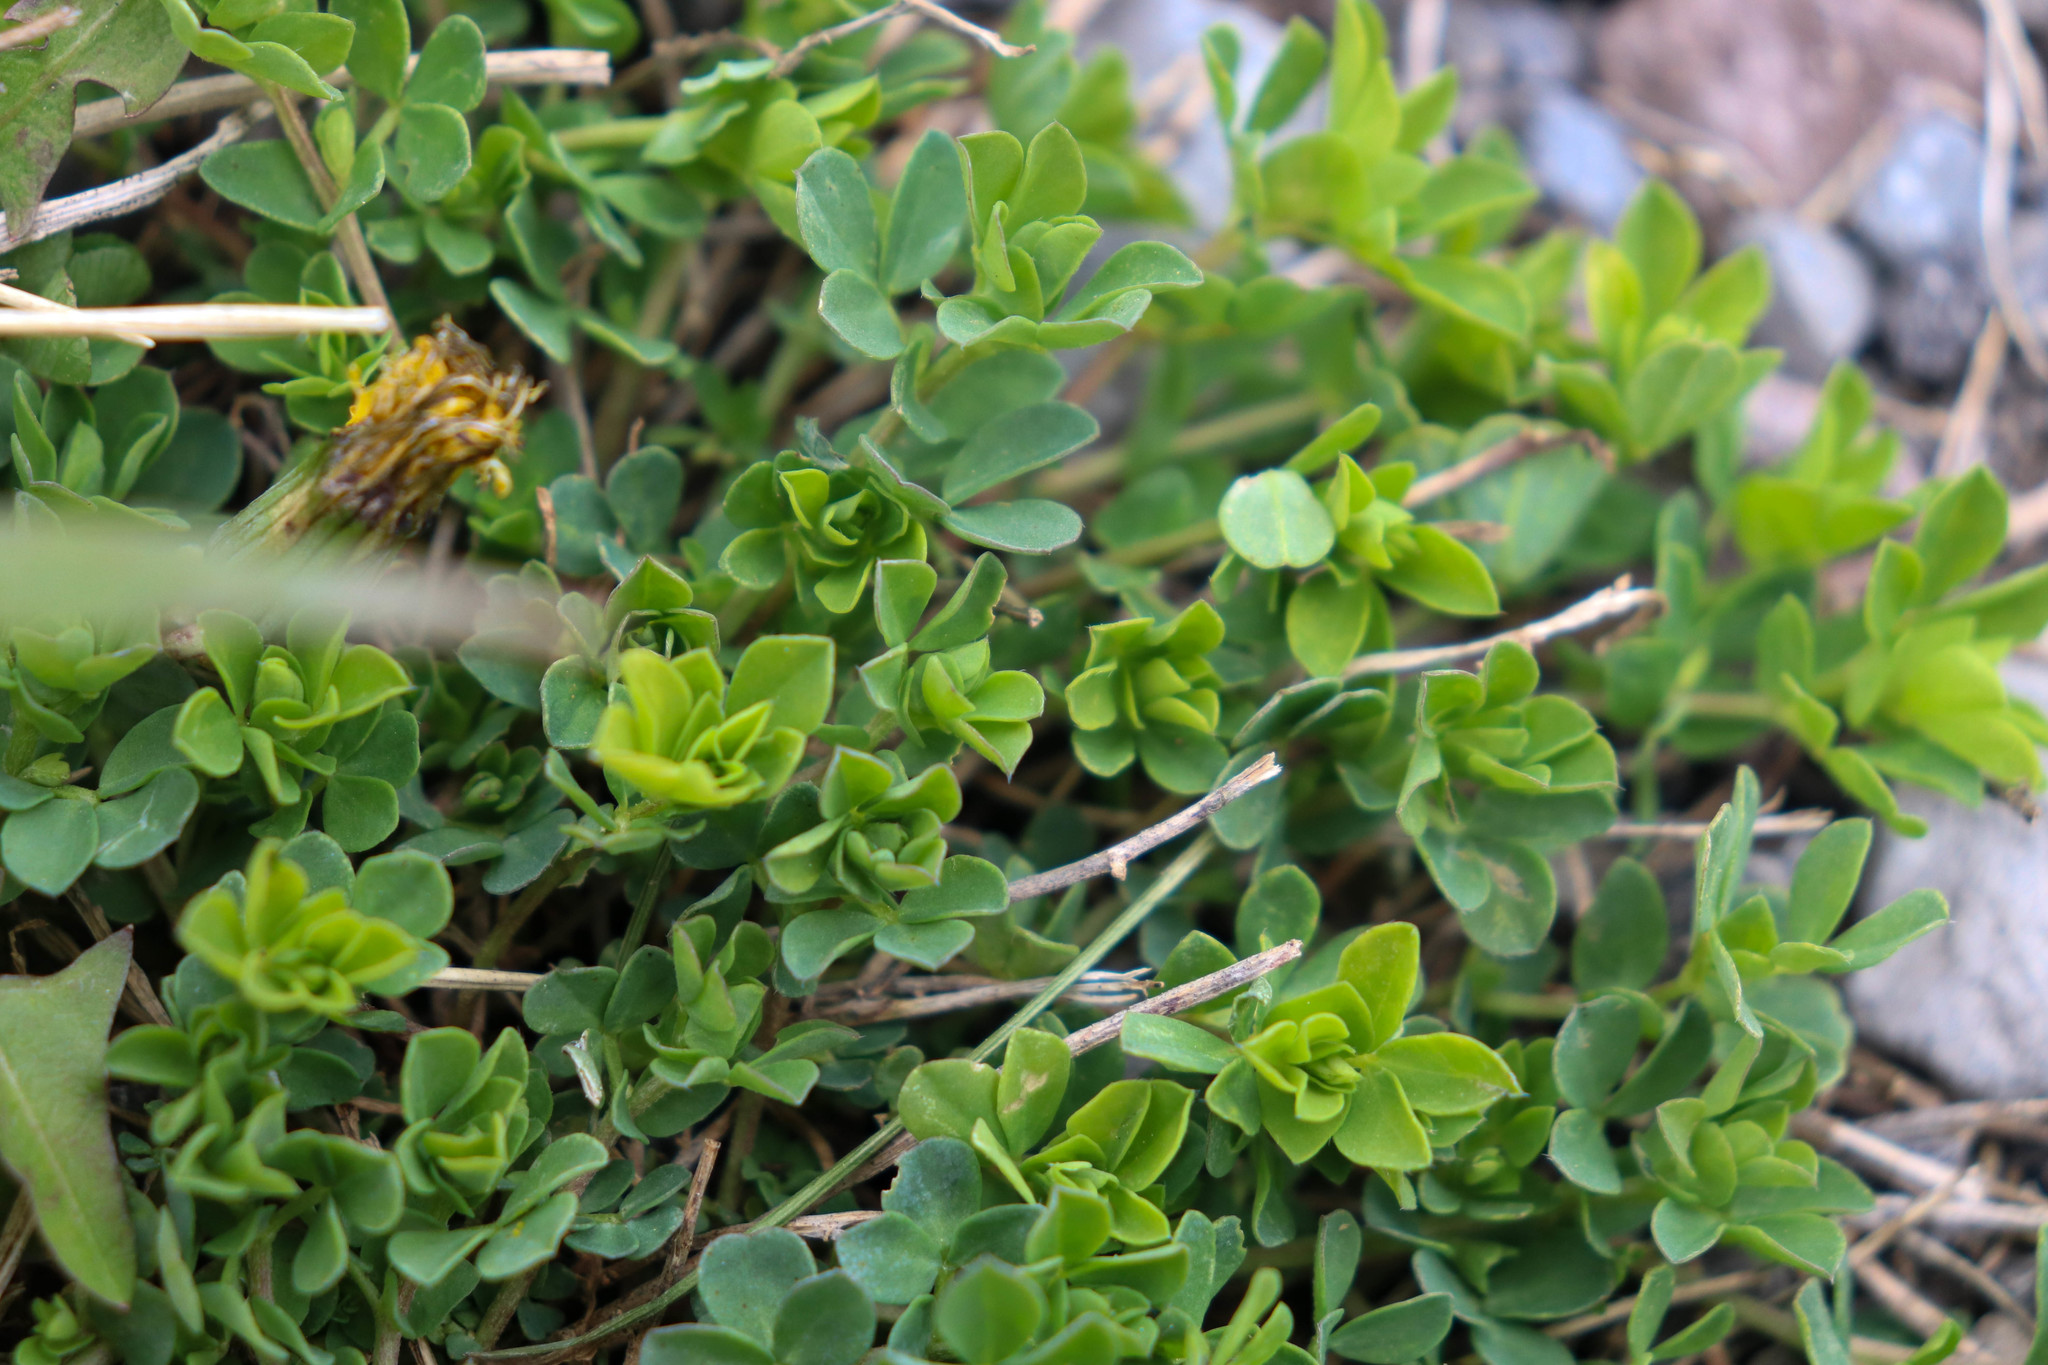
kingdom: Plantae
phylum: Tracheophyta
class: Magnoliopsida
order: Fabales
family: Fabaceae
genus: Lotus
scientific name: Lotus corniculatus
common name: Common bird's-foot-trefoil
